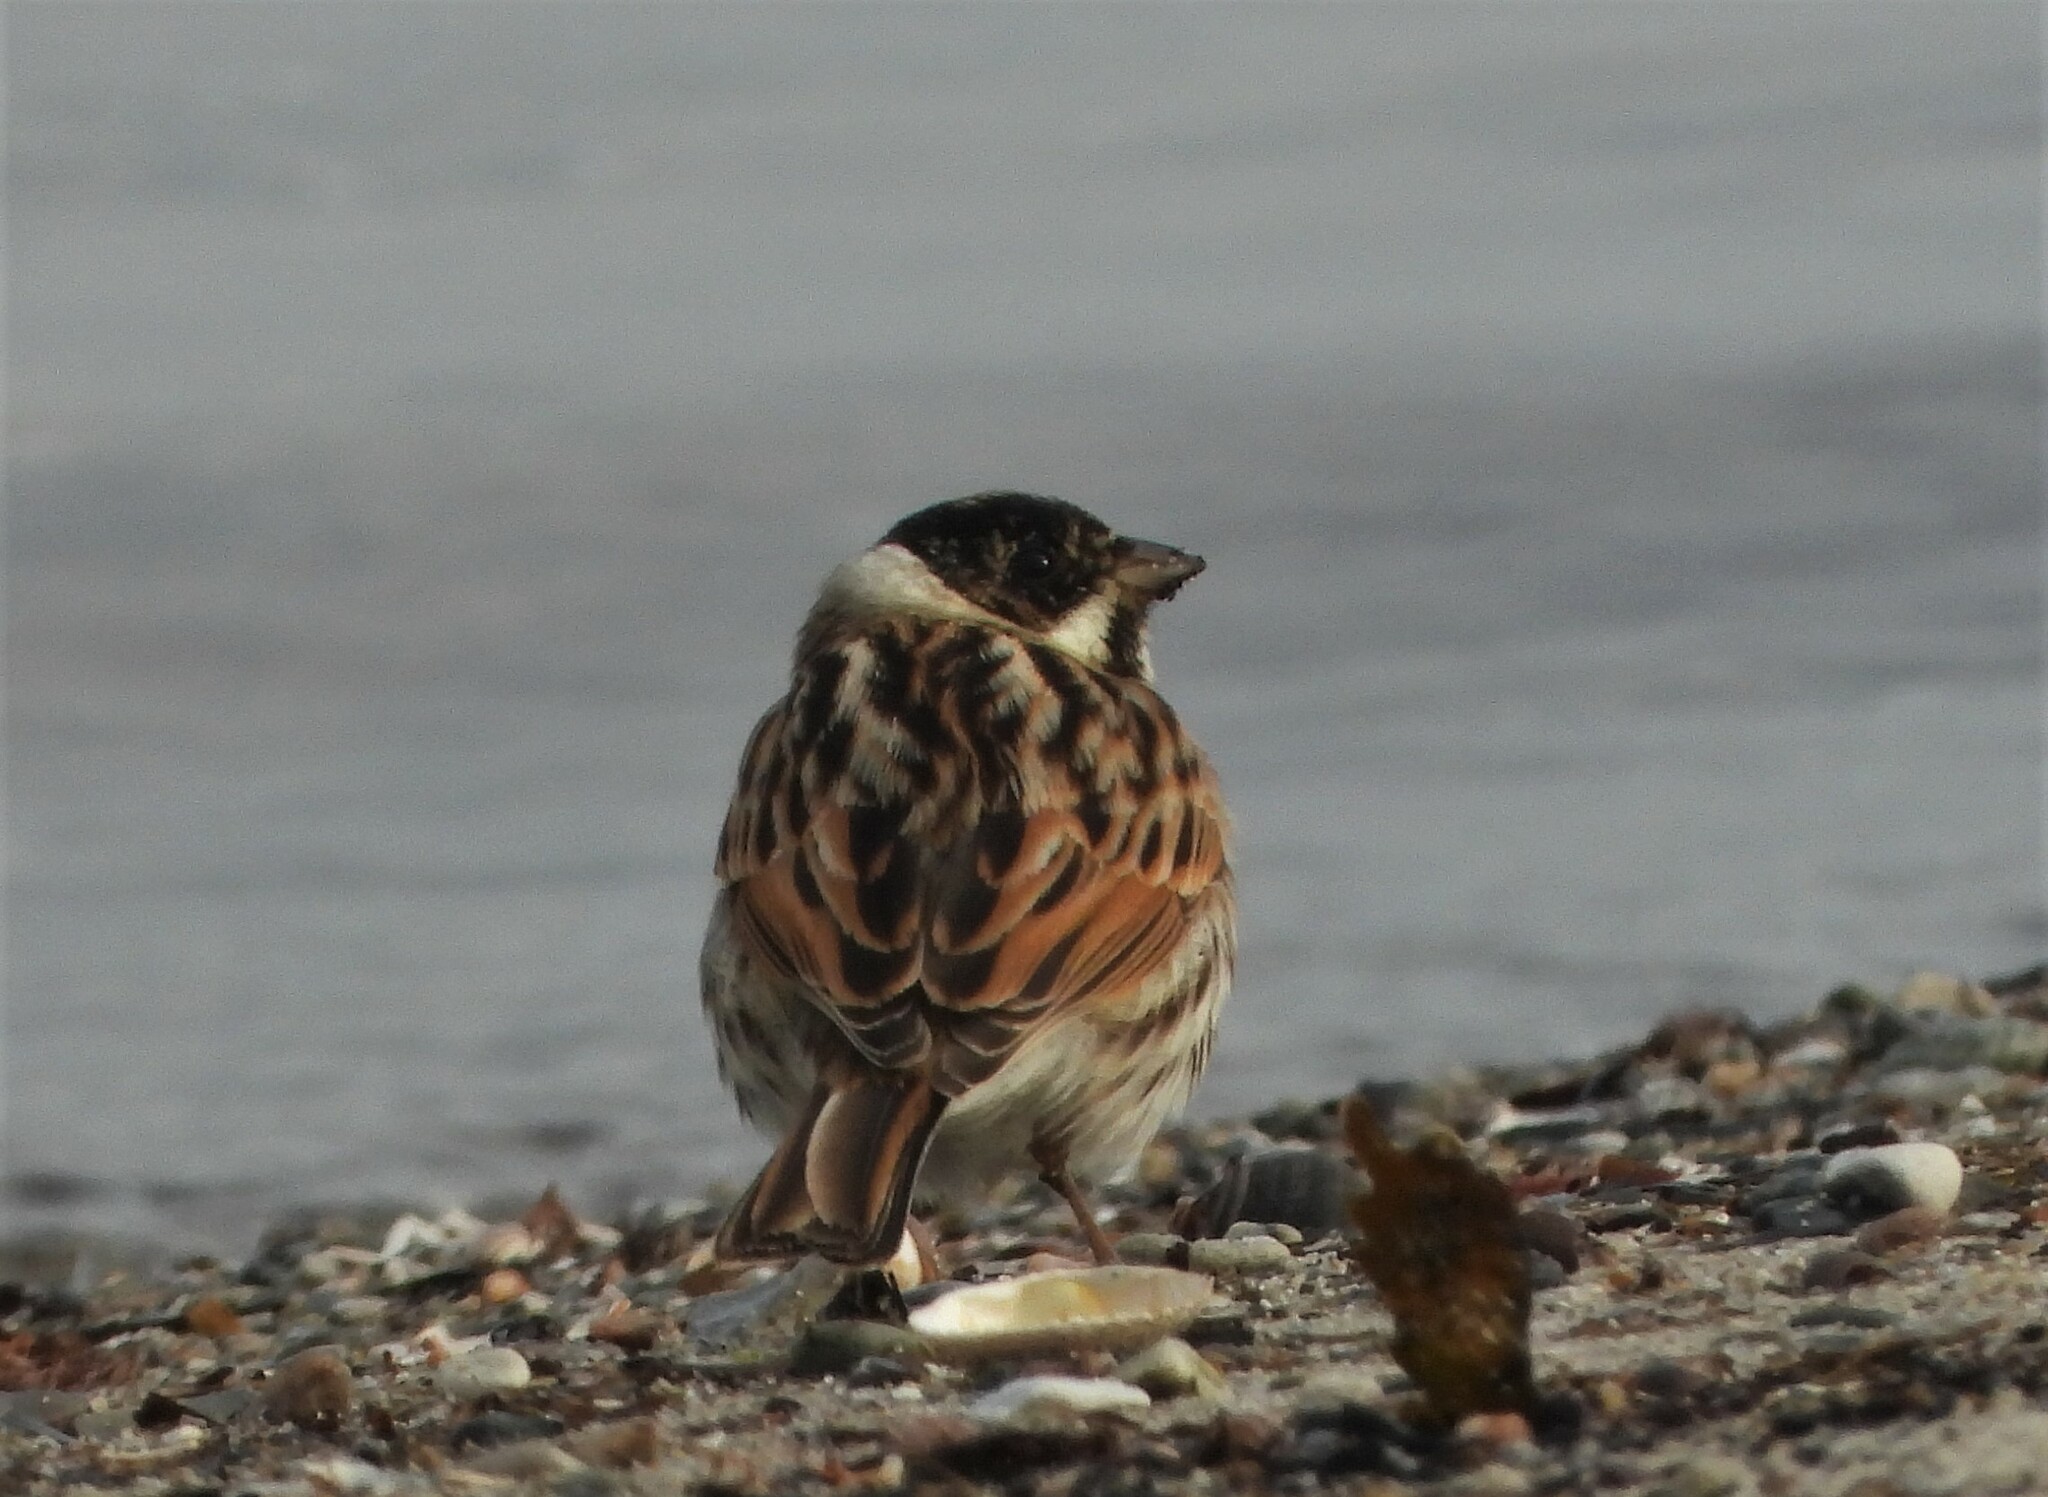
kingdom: Animalia
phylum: Chordata
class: Aves
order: Passeriformes
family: Emberizidae
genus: Emberiza
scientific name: Emberiza schoeniclus
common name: Reed bunting
